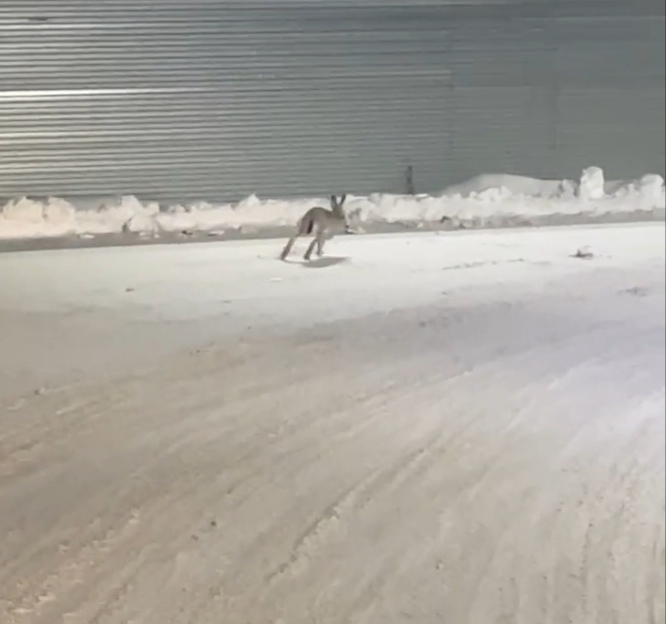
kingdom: Animalia
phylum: Chordata
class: Mammalia
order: Lagomorpha
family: Leporidae
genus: Lepus
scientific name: Lepus europaeus
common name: European hare
